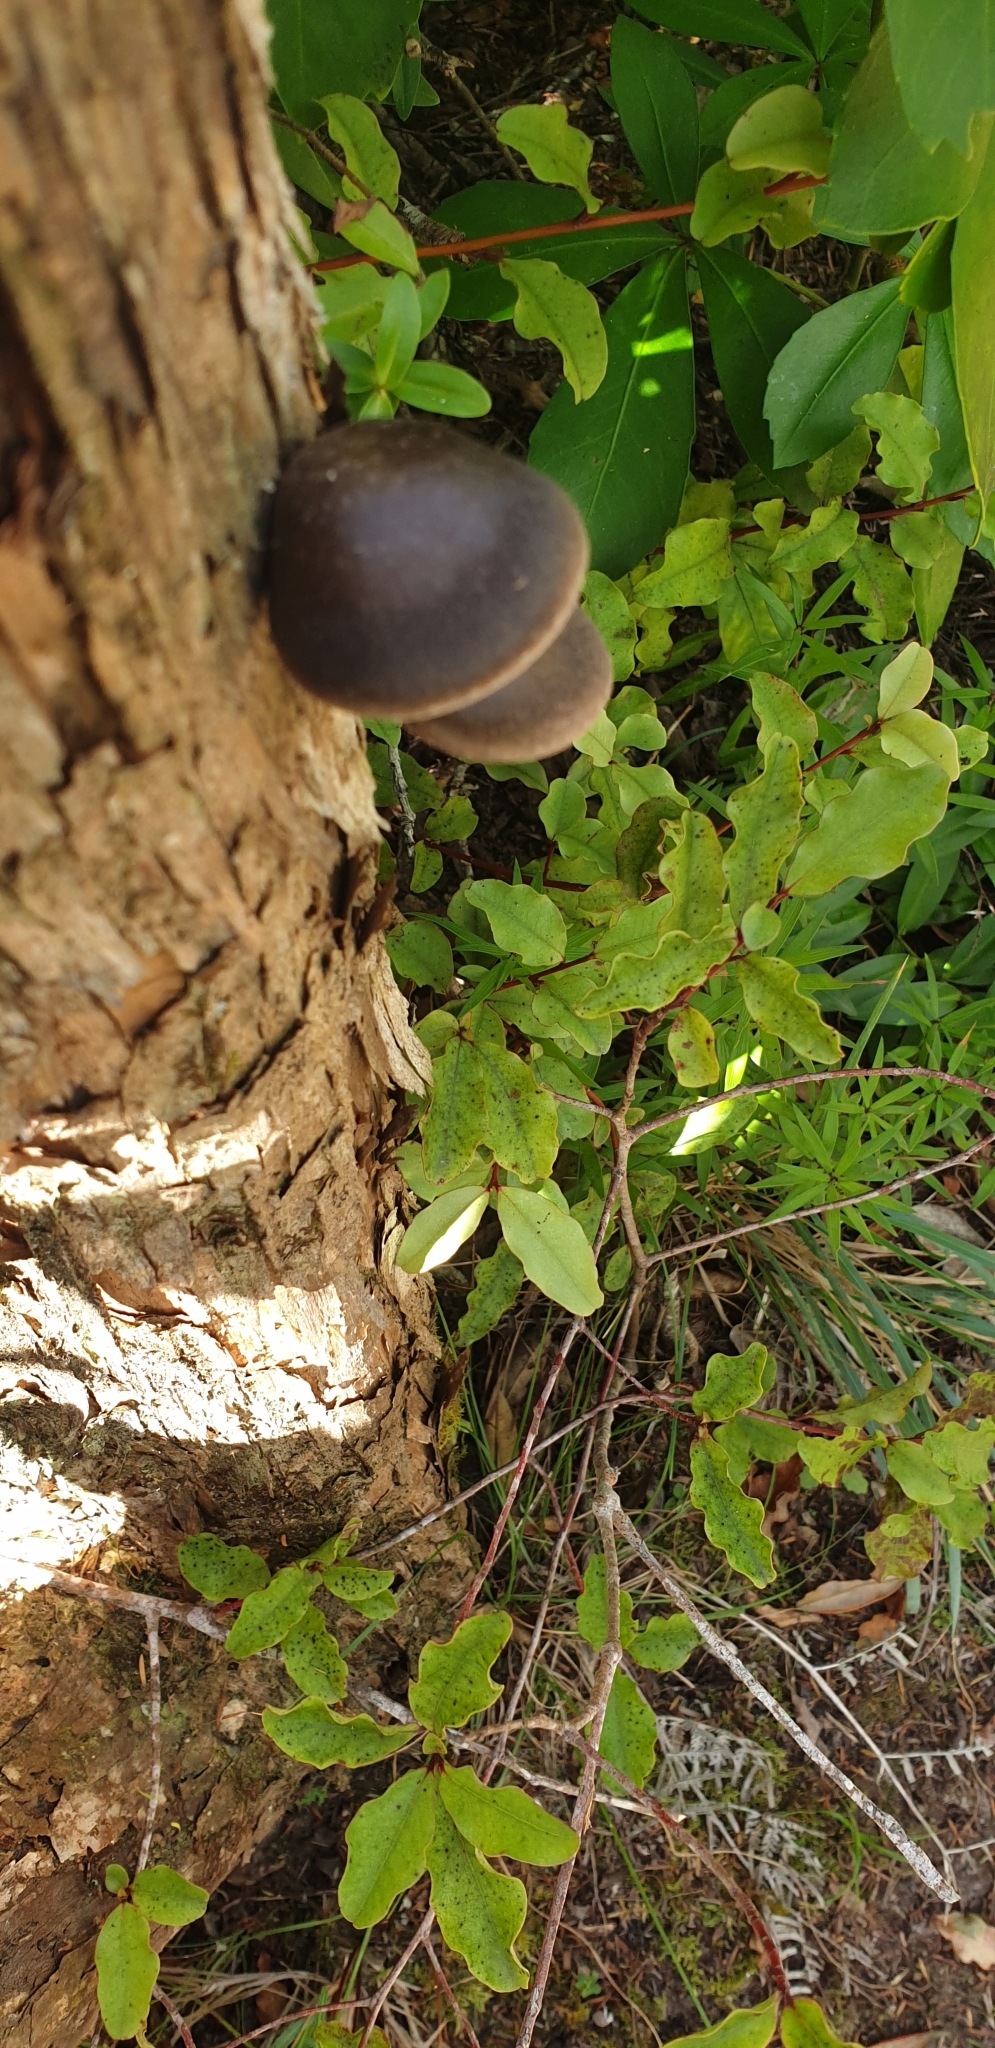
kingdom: Fungi
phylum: Basidiomycota
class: Agaricomycetes
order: Agaricales
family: Pleurotaceae
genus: Pleurotus
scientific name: Pleurotus australis
